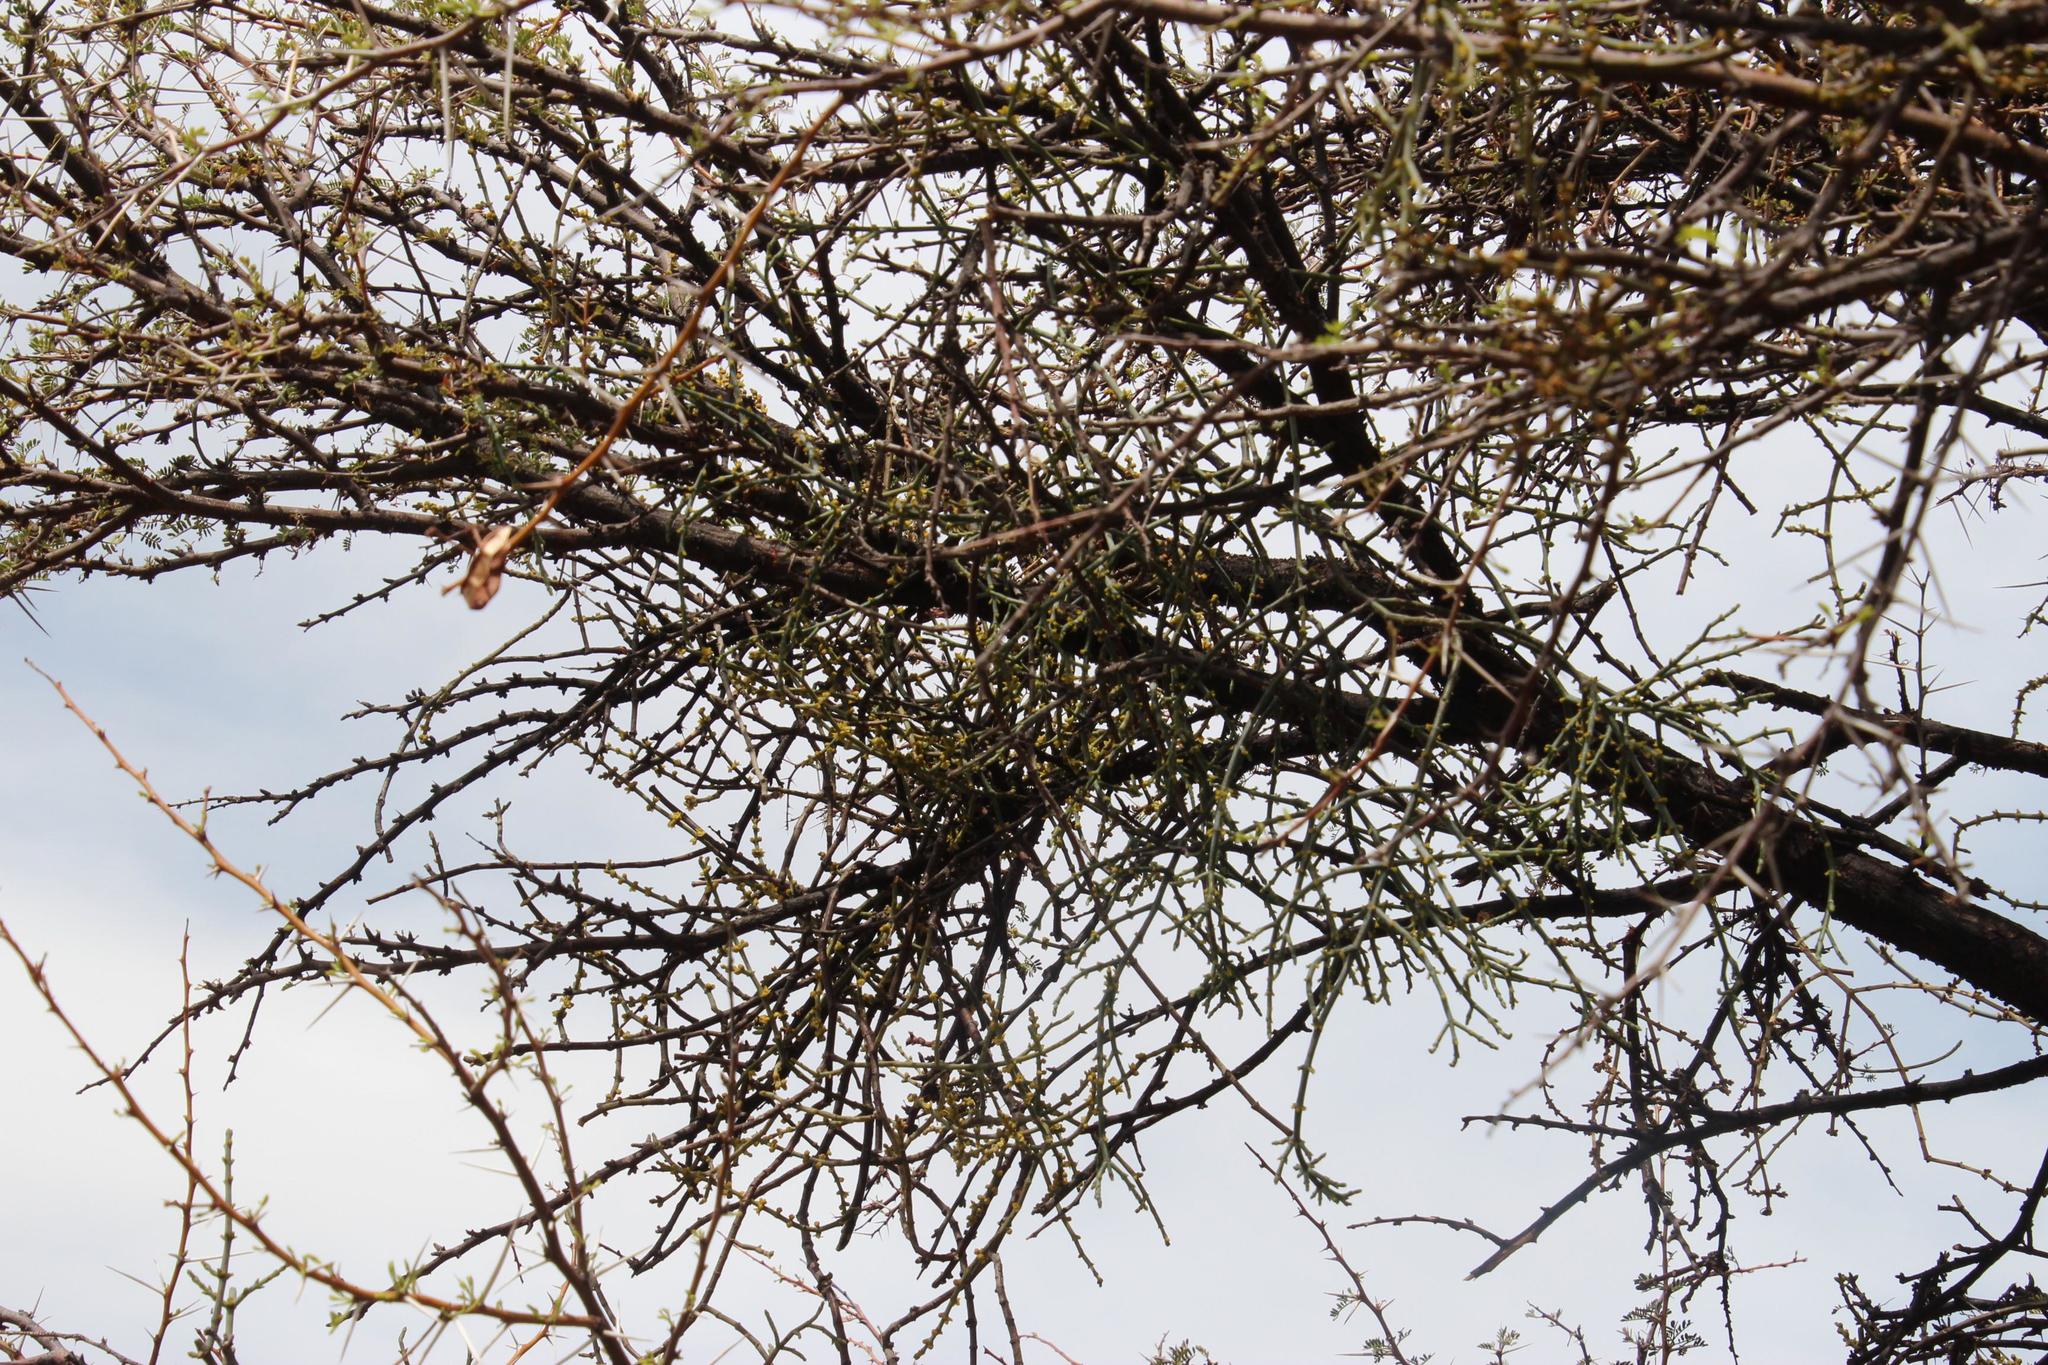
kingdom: Plantae
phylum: Tracheophyta
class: Magnoliopsida
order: Santalales
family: Viscaceae
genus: Viscum
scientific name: Viscum capense
